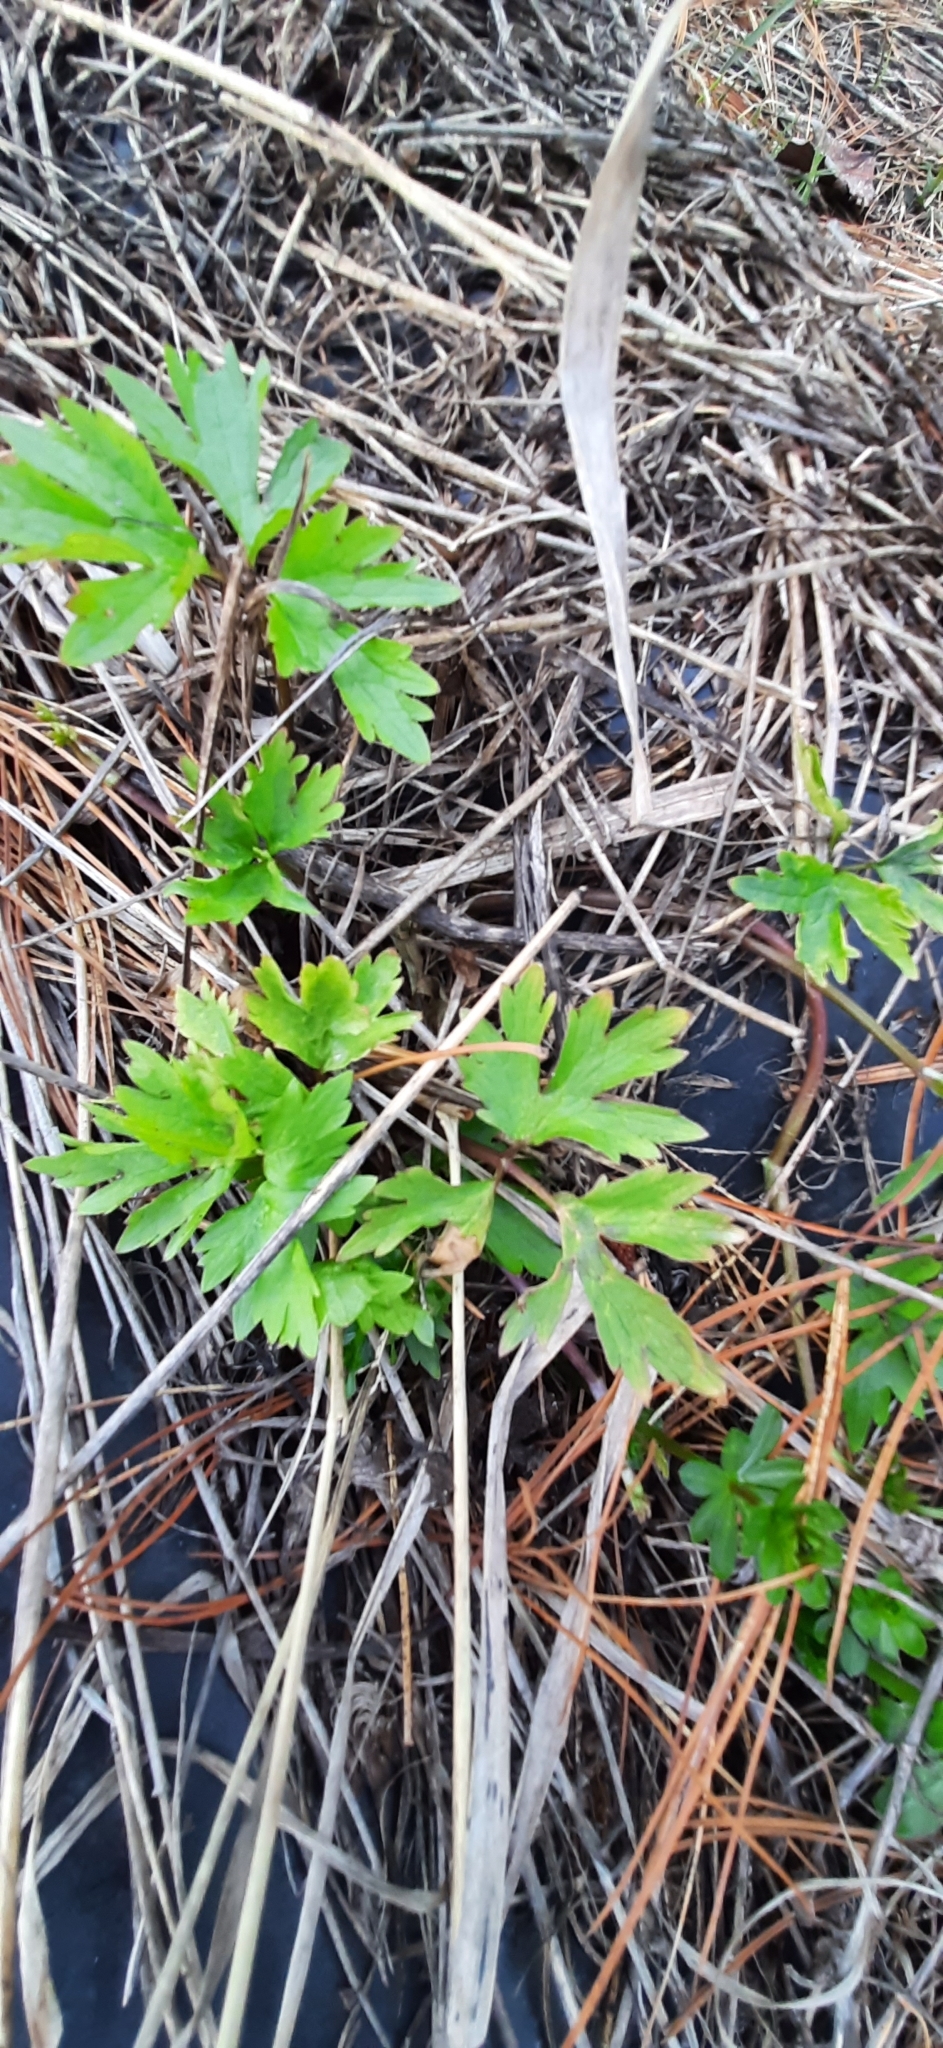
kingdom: Plantae
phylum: Tracheophyta
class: Magnoliopsida
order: Ranunculales
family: Ranunculaceae
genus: Ranunculus
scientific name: Ranunculus repens
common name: Creeping buttercup
